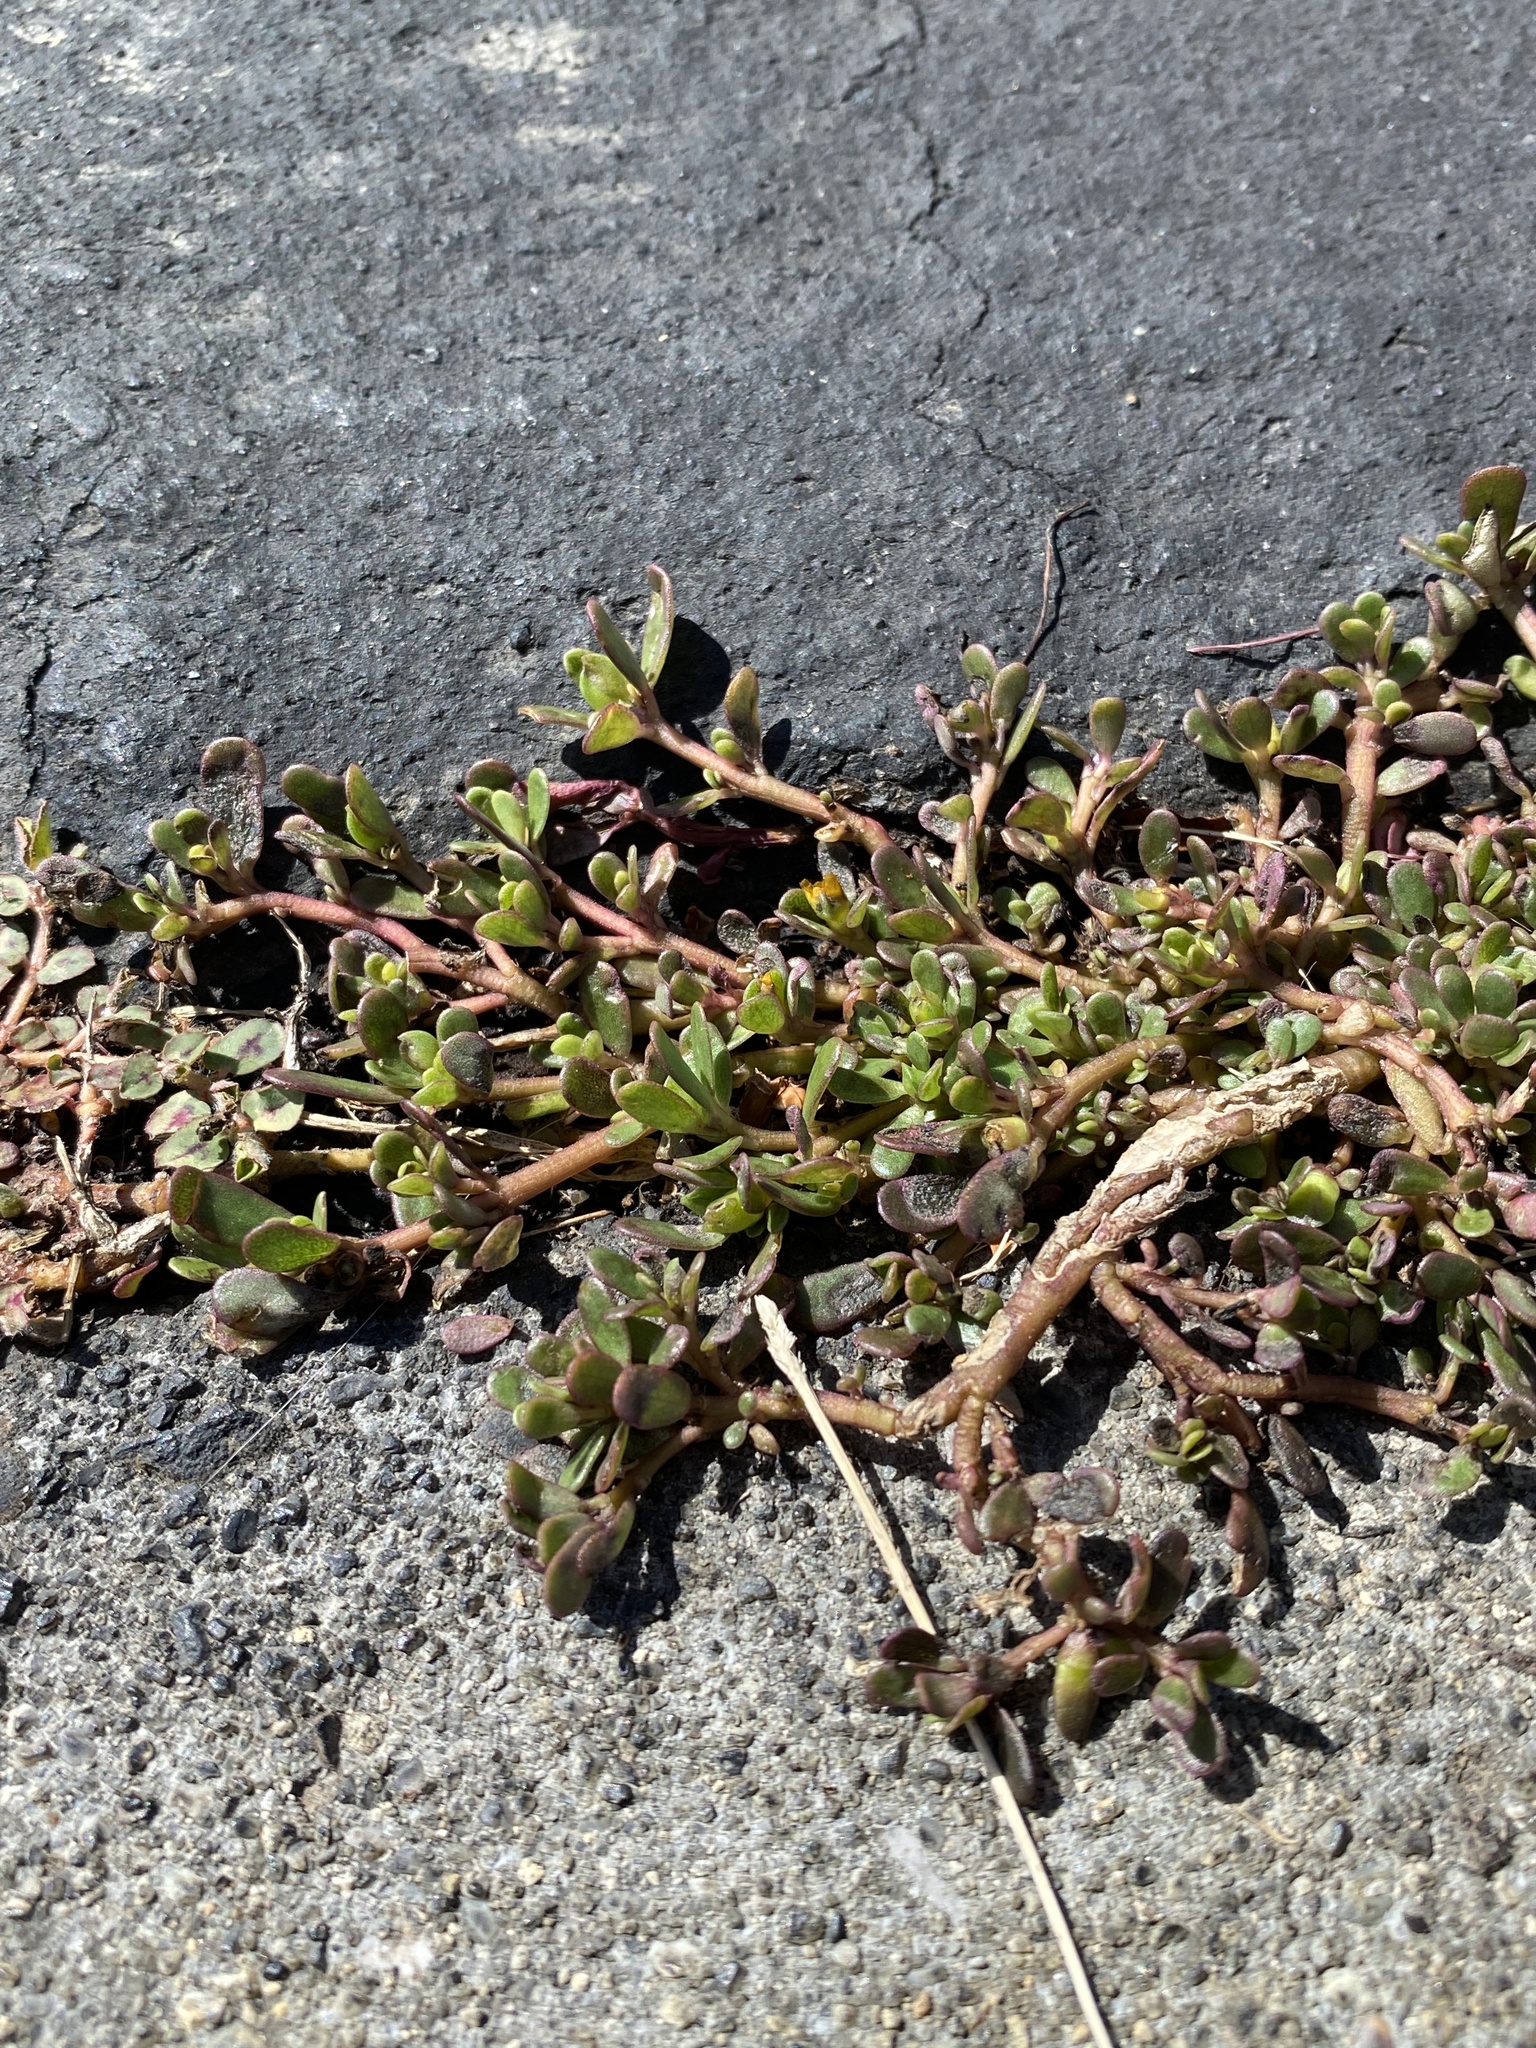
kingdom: Plantae
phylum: Tracheophyta
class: Magnoliopsida
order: Caryophyllales
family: Portulacaceae
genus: Portulaca
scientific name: Portulaca oleracea
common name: Common purslane
